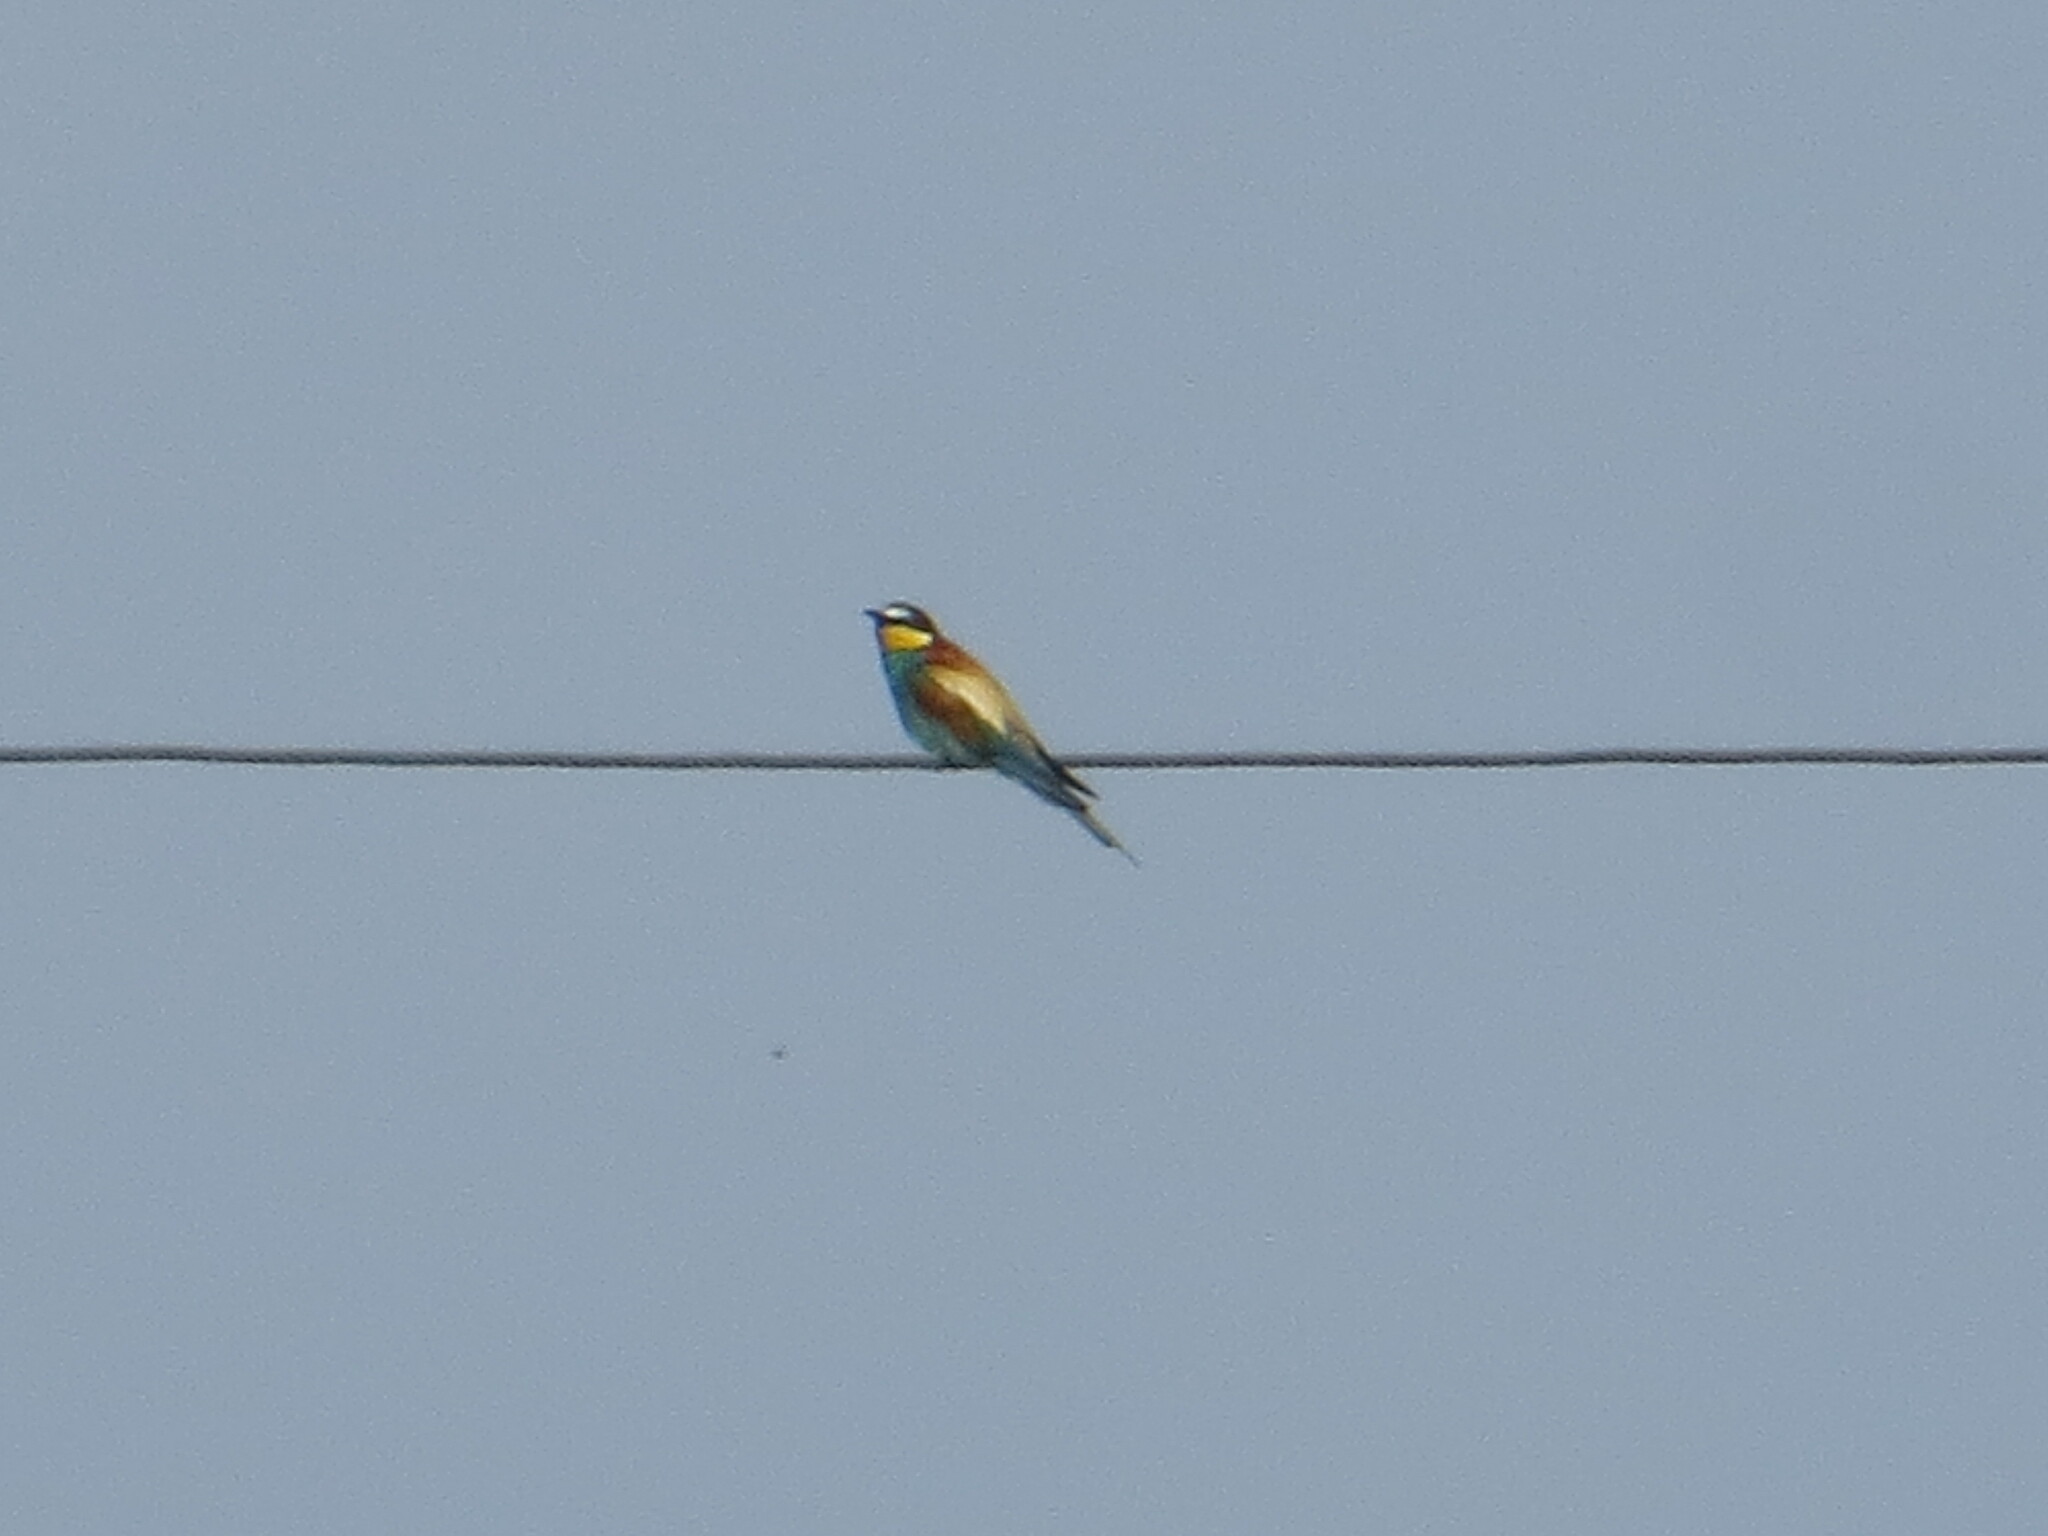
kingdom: Animalia
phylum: Chordata
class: Aves
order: Coraciiformes
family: Meropidae
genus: Merops
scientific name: Merops apiaster
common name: European bee-eater
